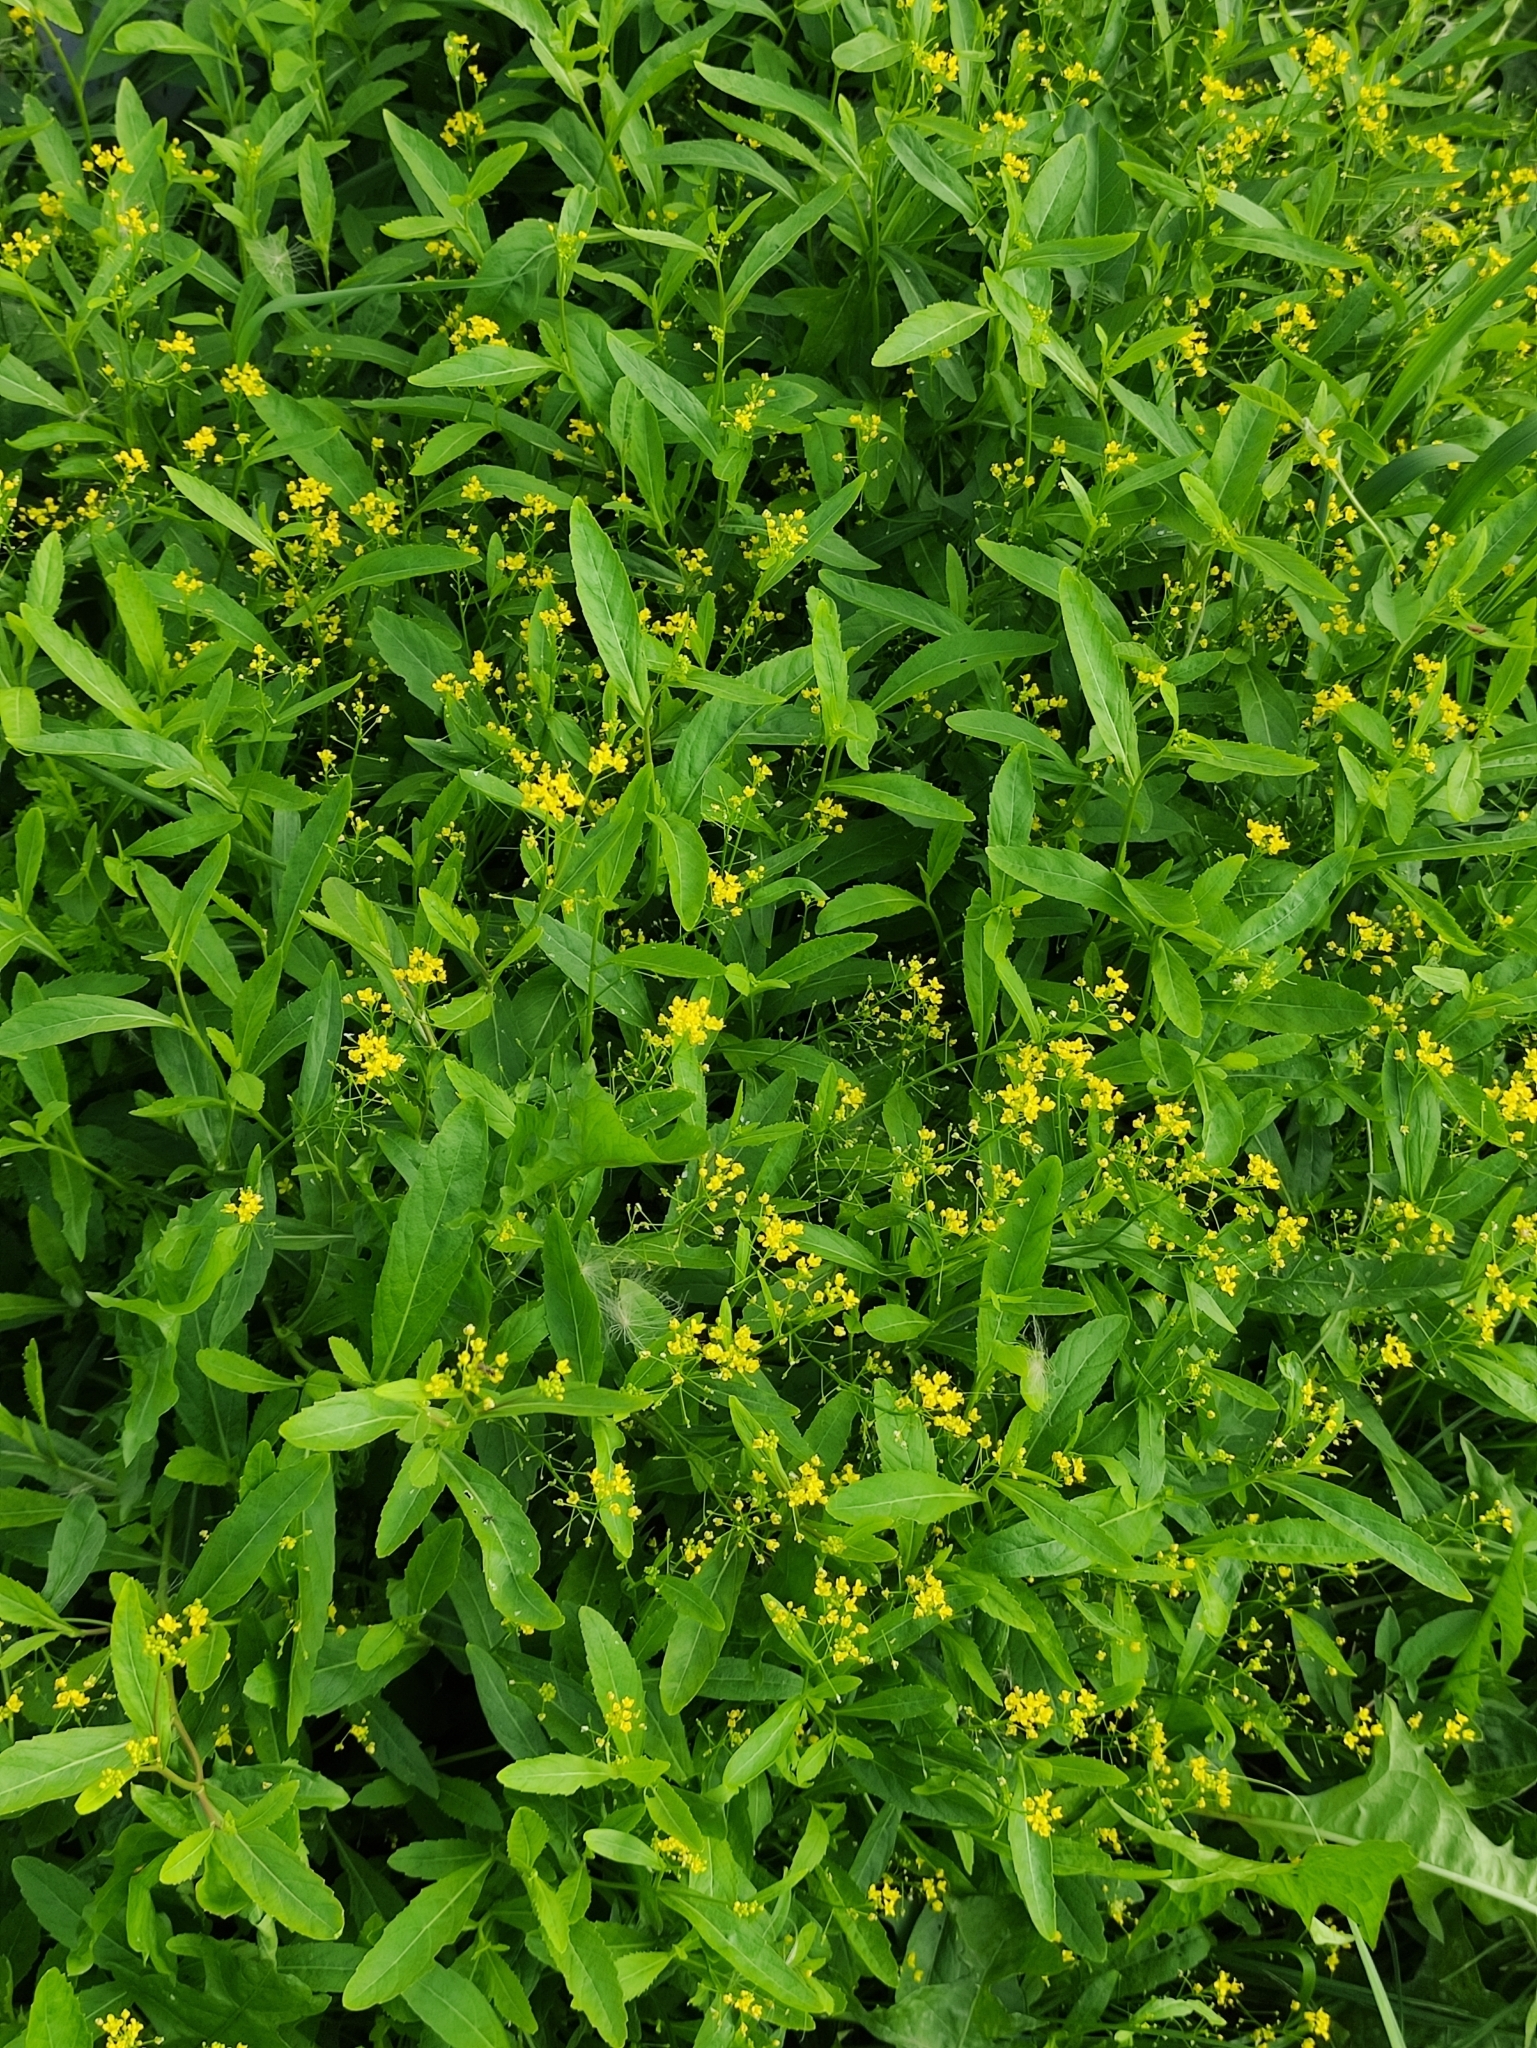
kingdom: Plantae
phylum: Tracheophyta
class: Magnoliopsida
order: Brassicales
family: Brassicaceae
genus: Rorippa
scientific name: Rorippa austriaca
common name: Austrian yellow-cress
